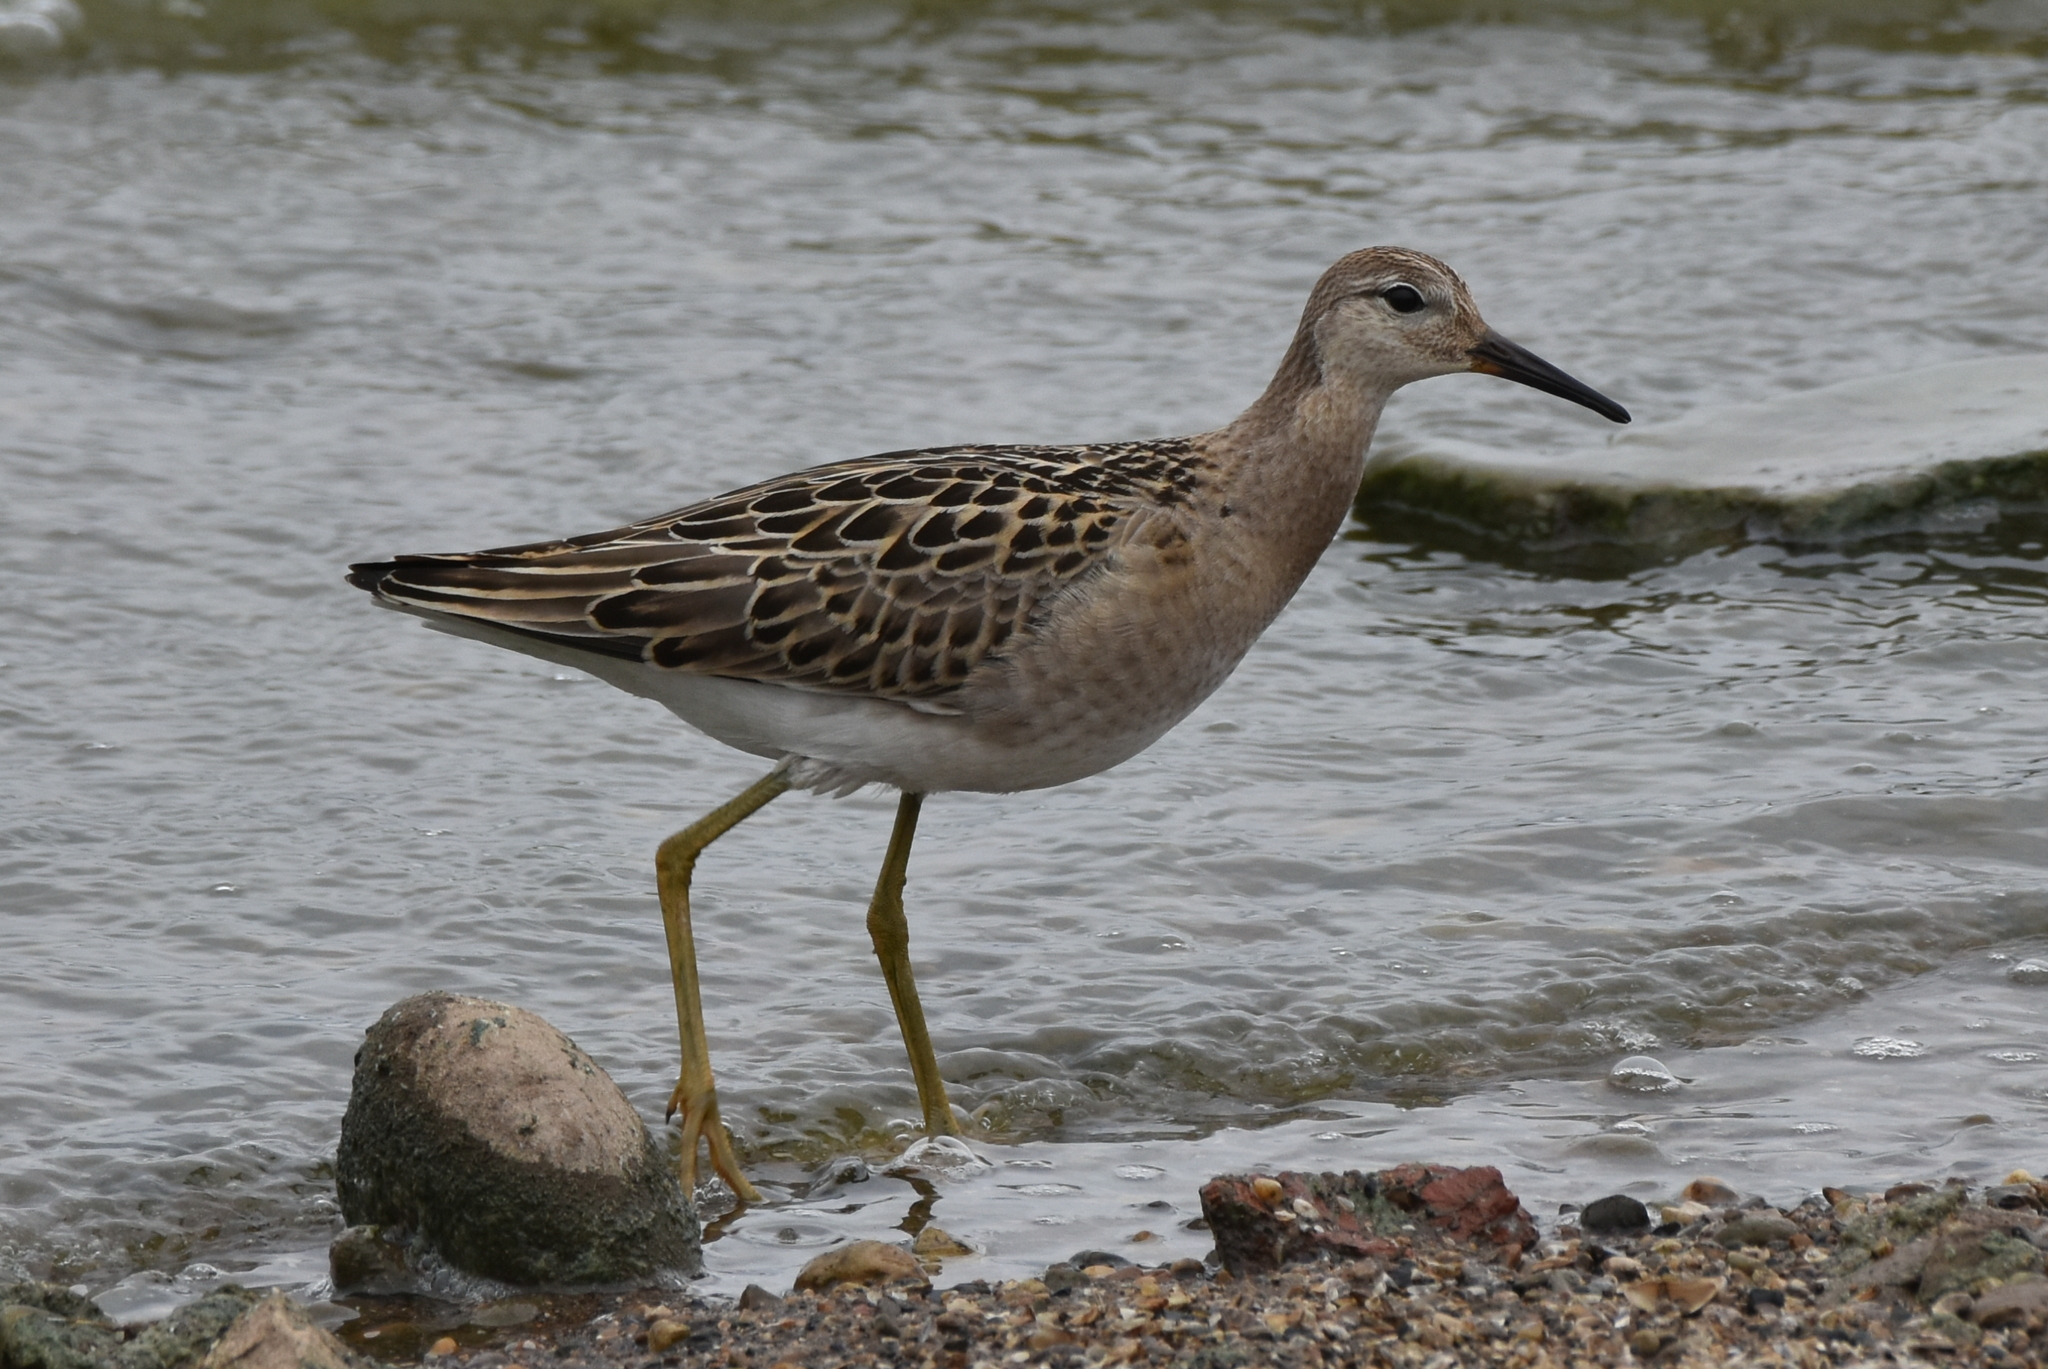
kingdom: Animalia
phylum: Chordata
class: Aves
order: Charadriiformes
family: Scolopacidae
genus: Calidris
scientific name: Calidris pugnax
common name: Ruff
